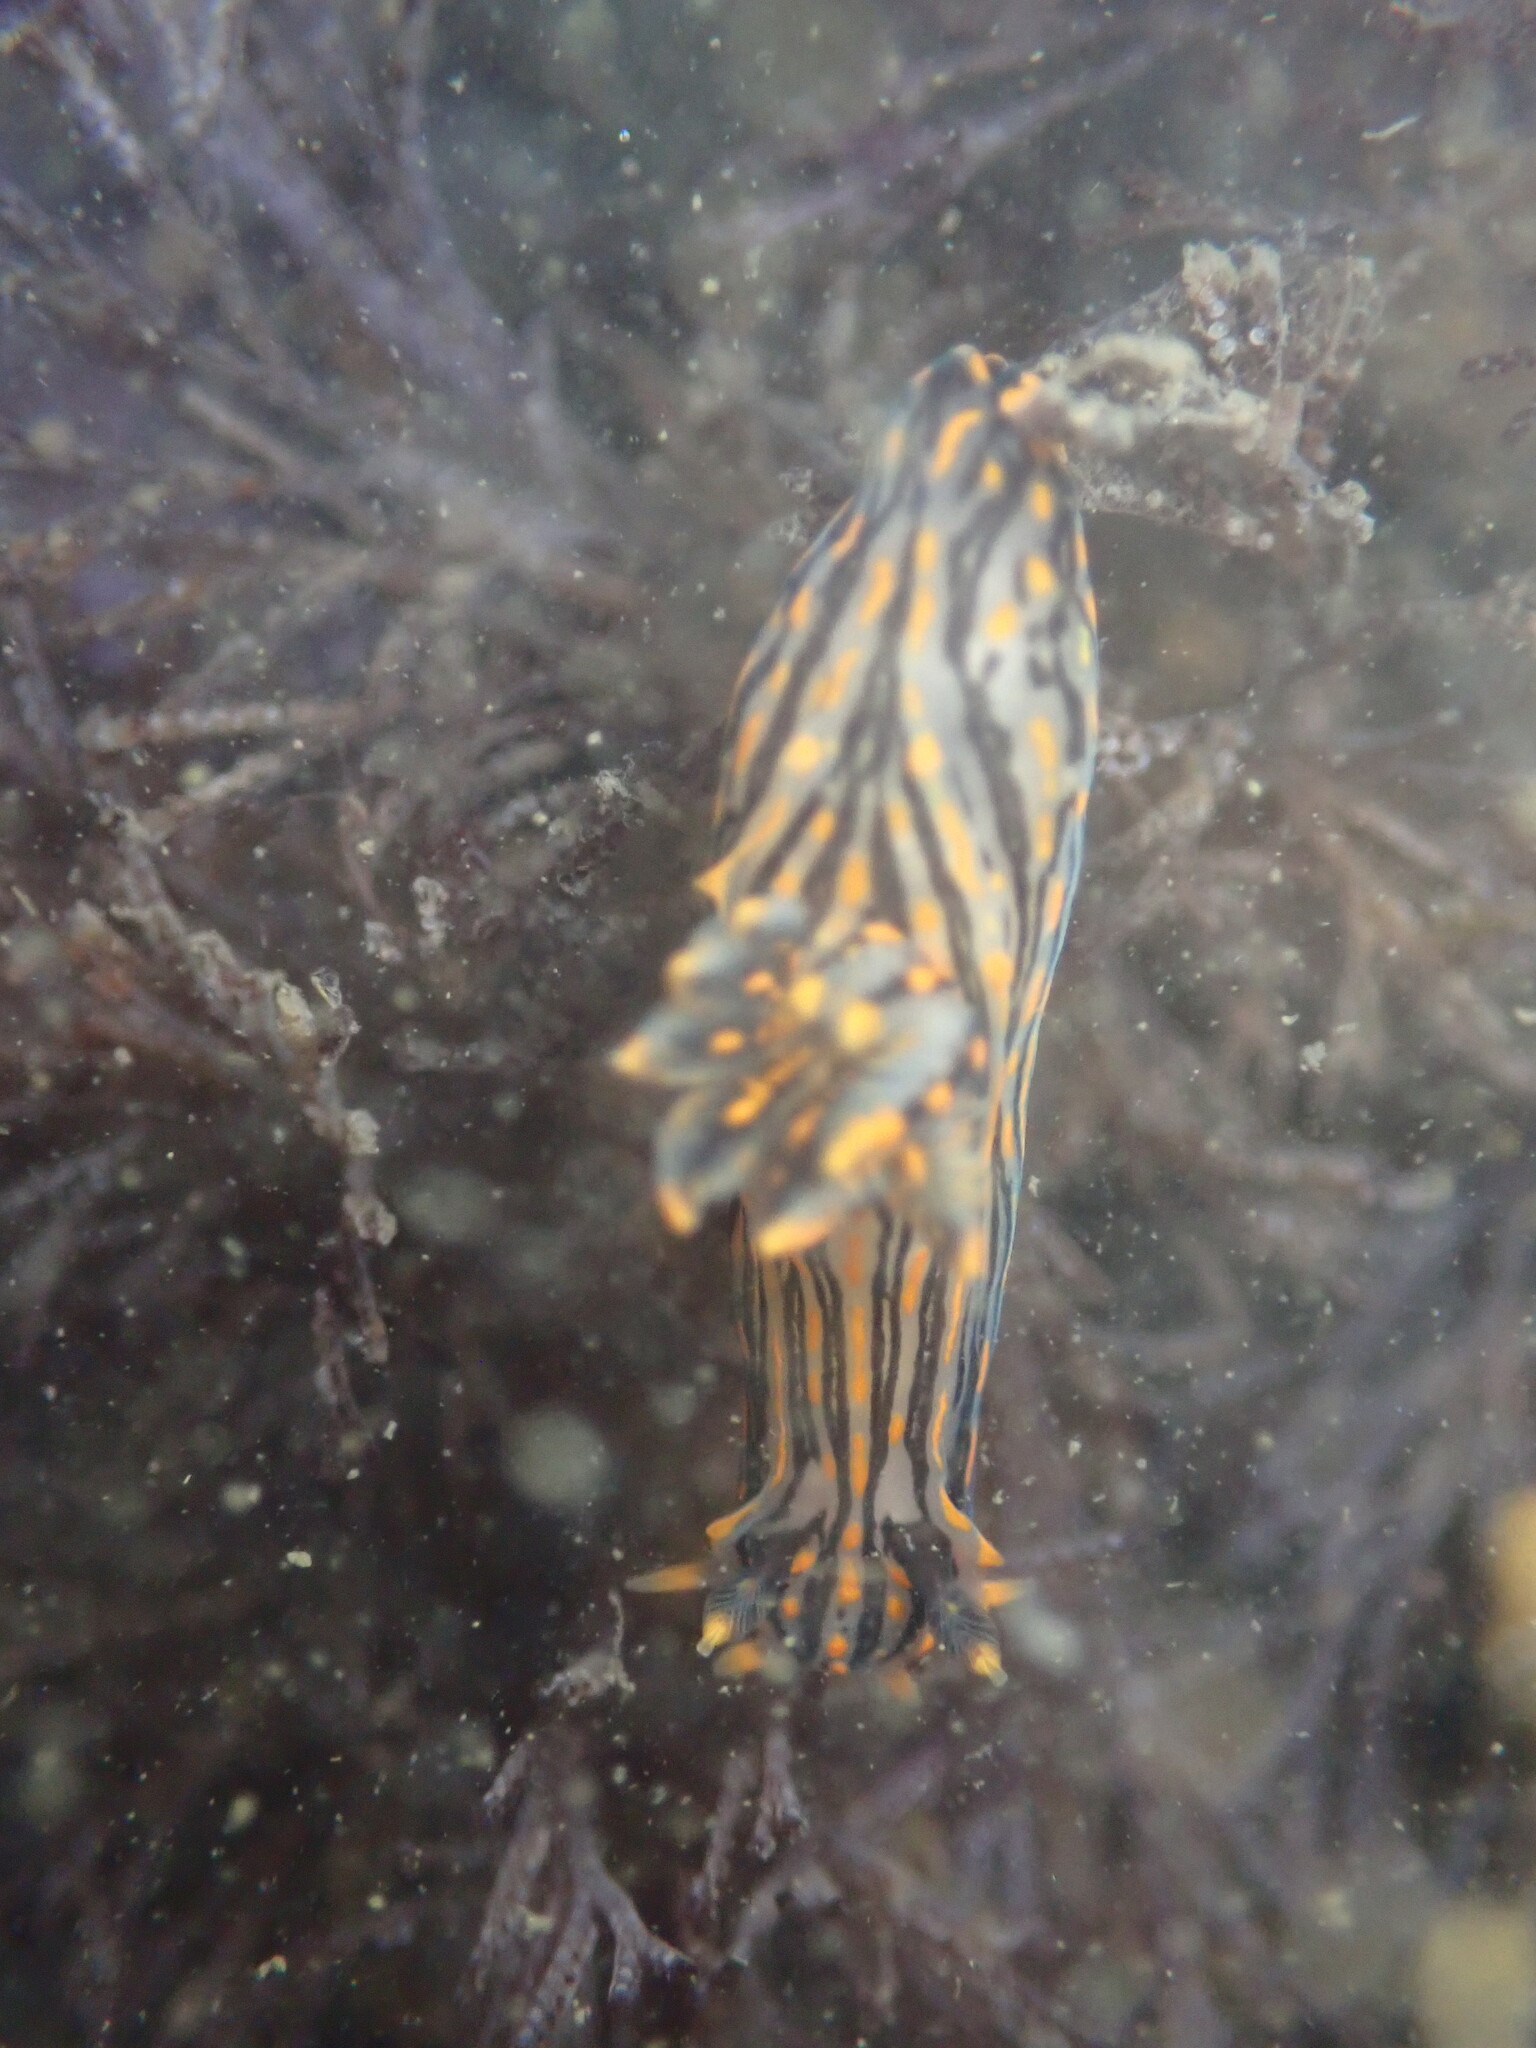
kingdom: Animalia
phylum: Mollusca
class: Gastropoda
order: Nudibranchia
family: Polyceridae
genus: Polycera
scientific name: Polycera atra
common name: Orange-spike polycera
